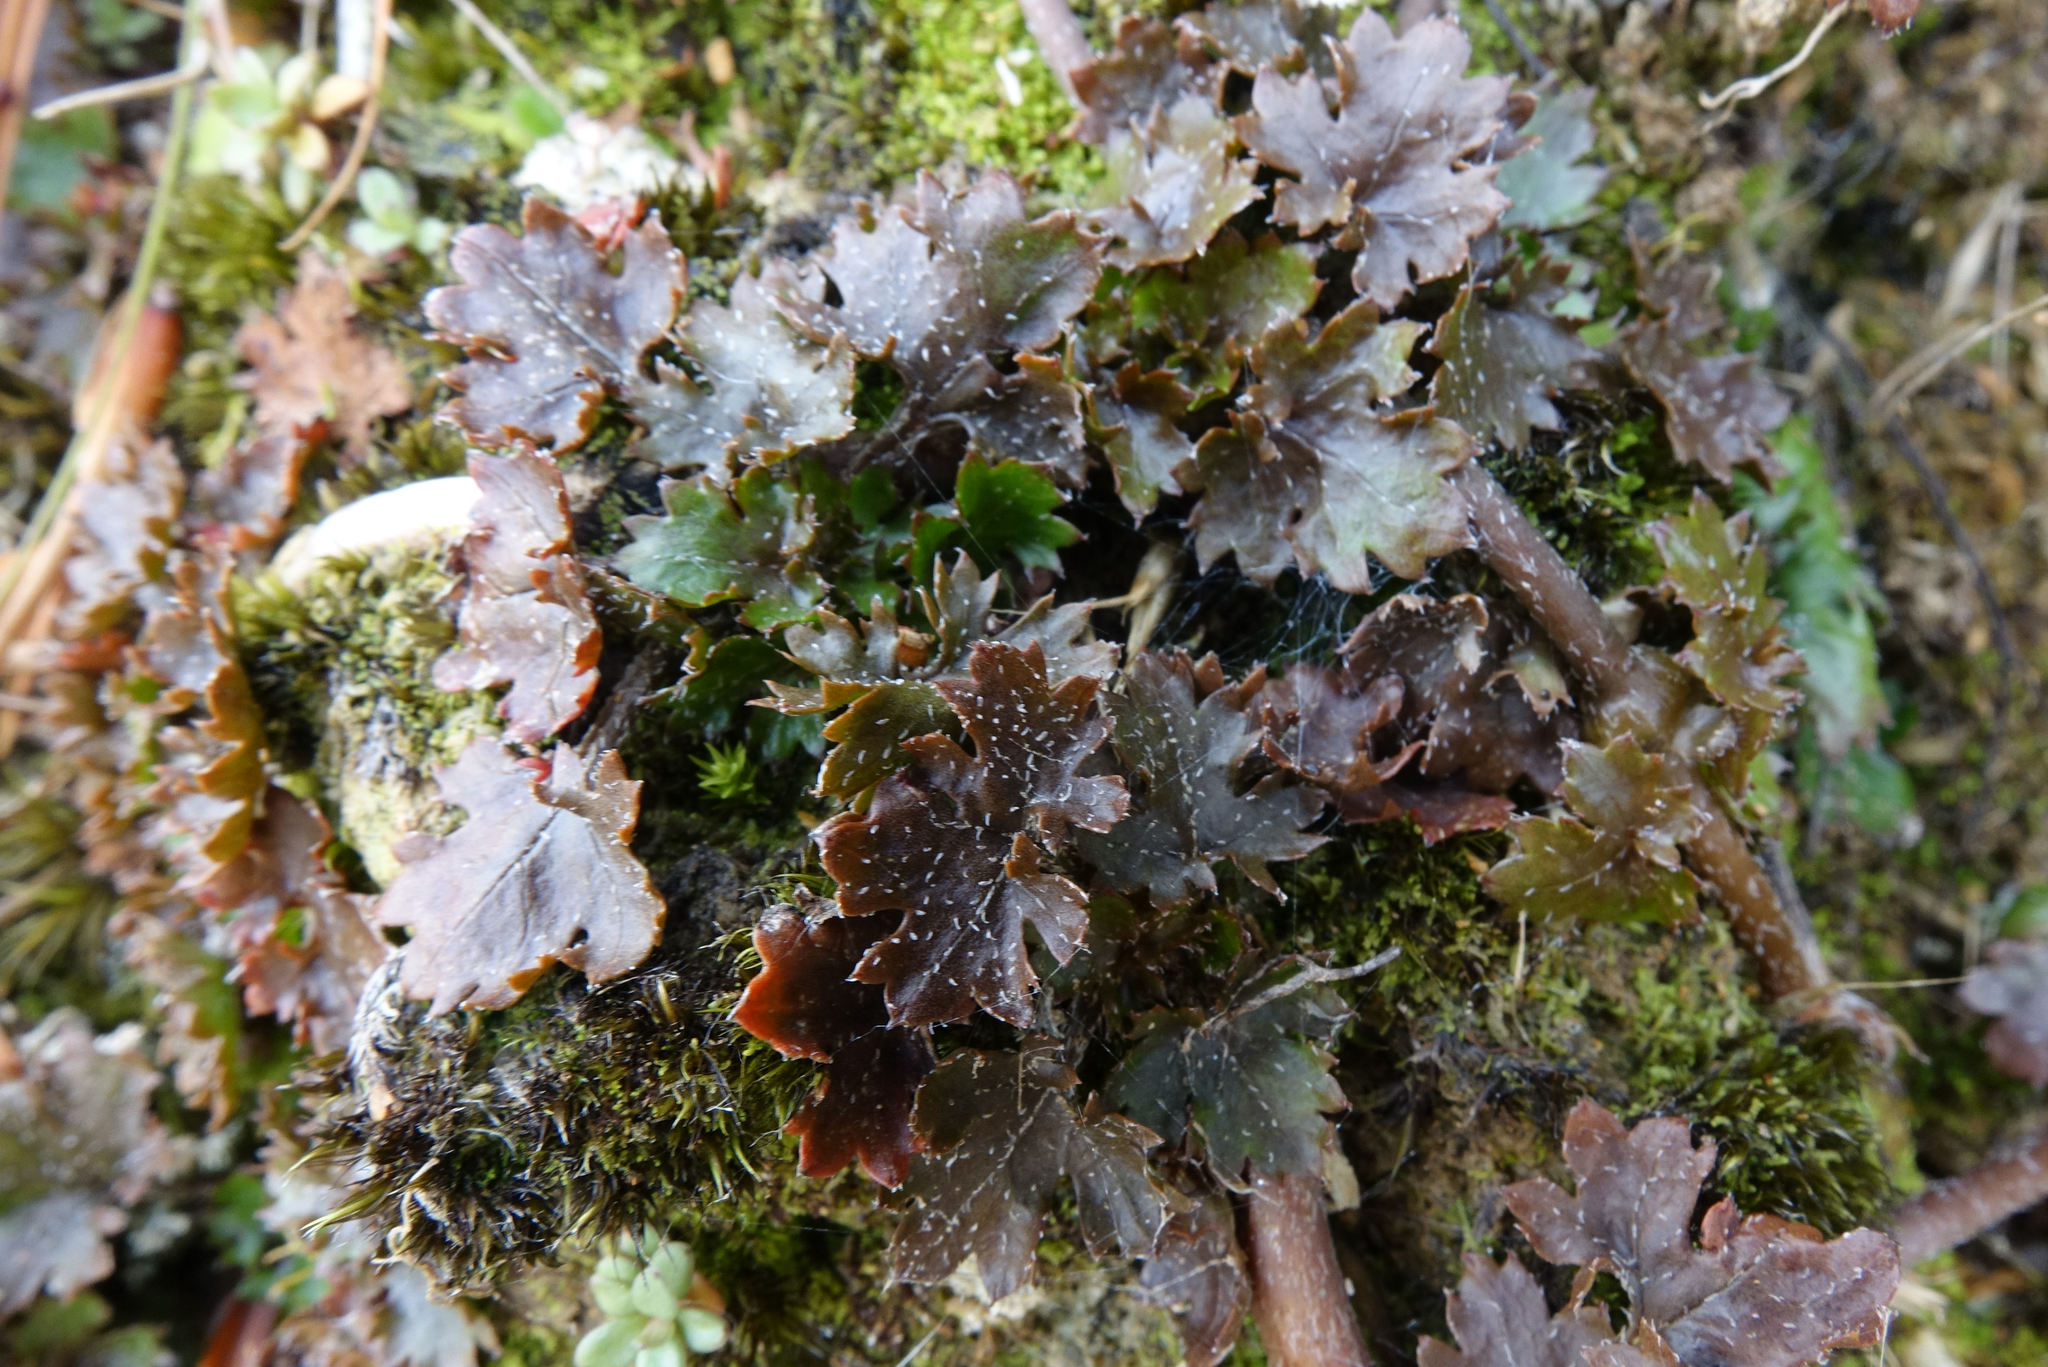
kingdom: Plantae
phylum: Tracheophyta
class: Magnoliopsida
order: Gunnerales
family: Gunneraceae
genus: Gunnera
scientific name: Gunnera monoica
